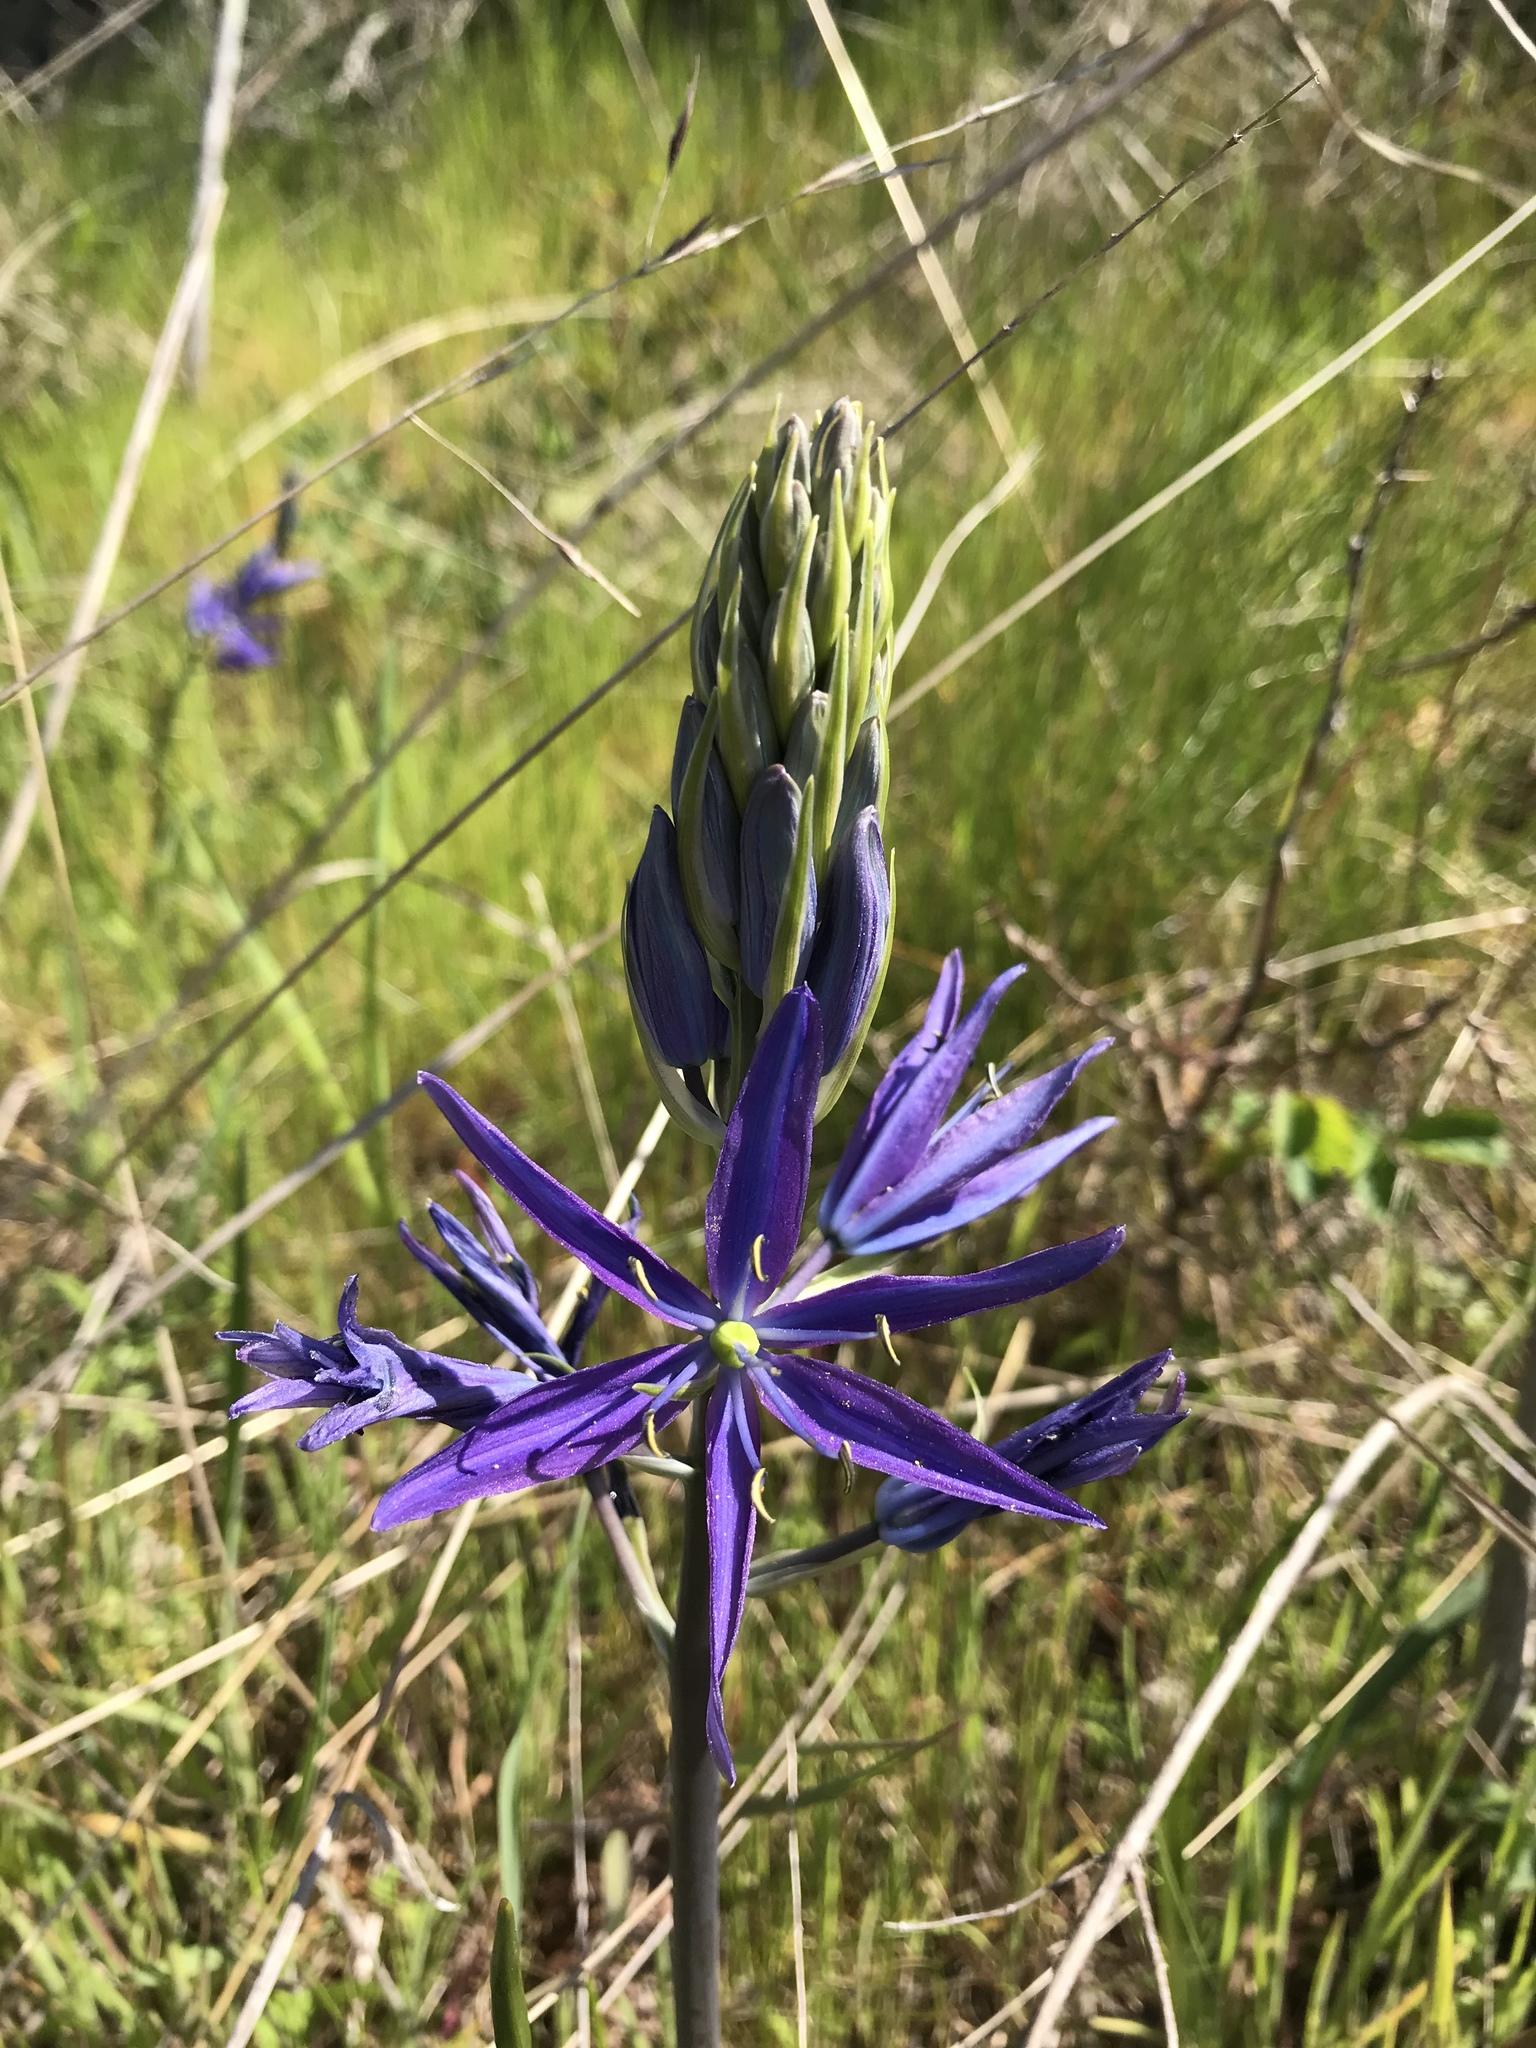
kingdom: Plantae
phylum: Tracheophyta
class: Liliopsida
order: Asparagales
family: Asparagaceae
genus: Camassia
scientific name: Camassia leichtlinii
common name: Leichtlin's camas
